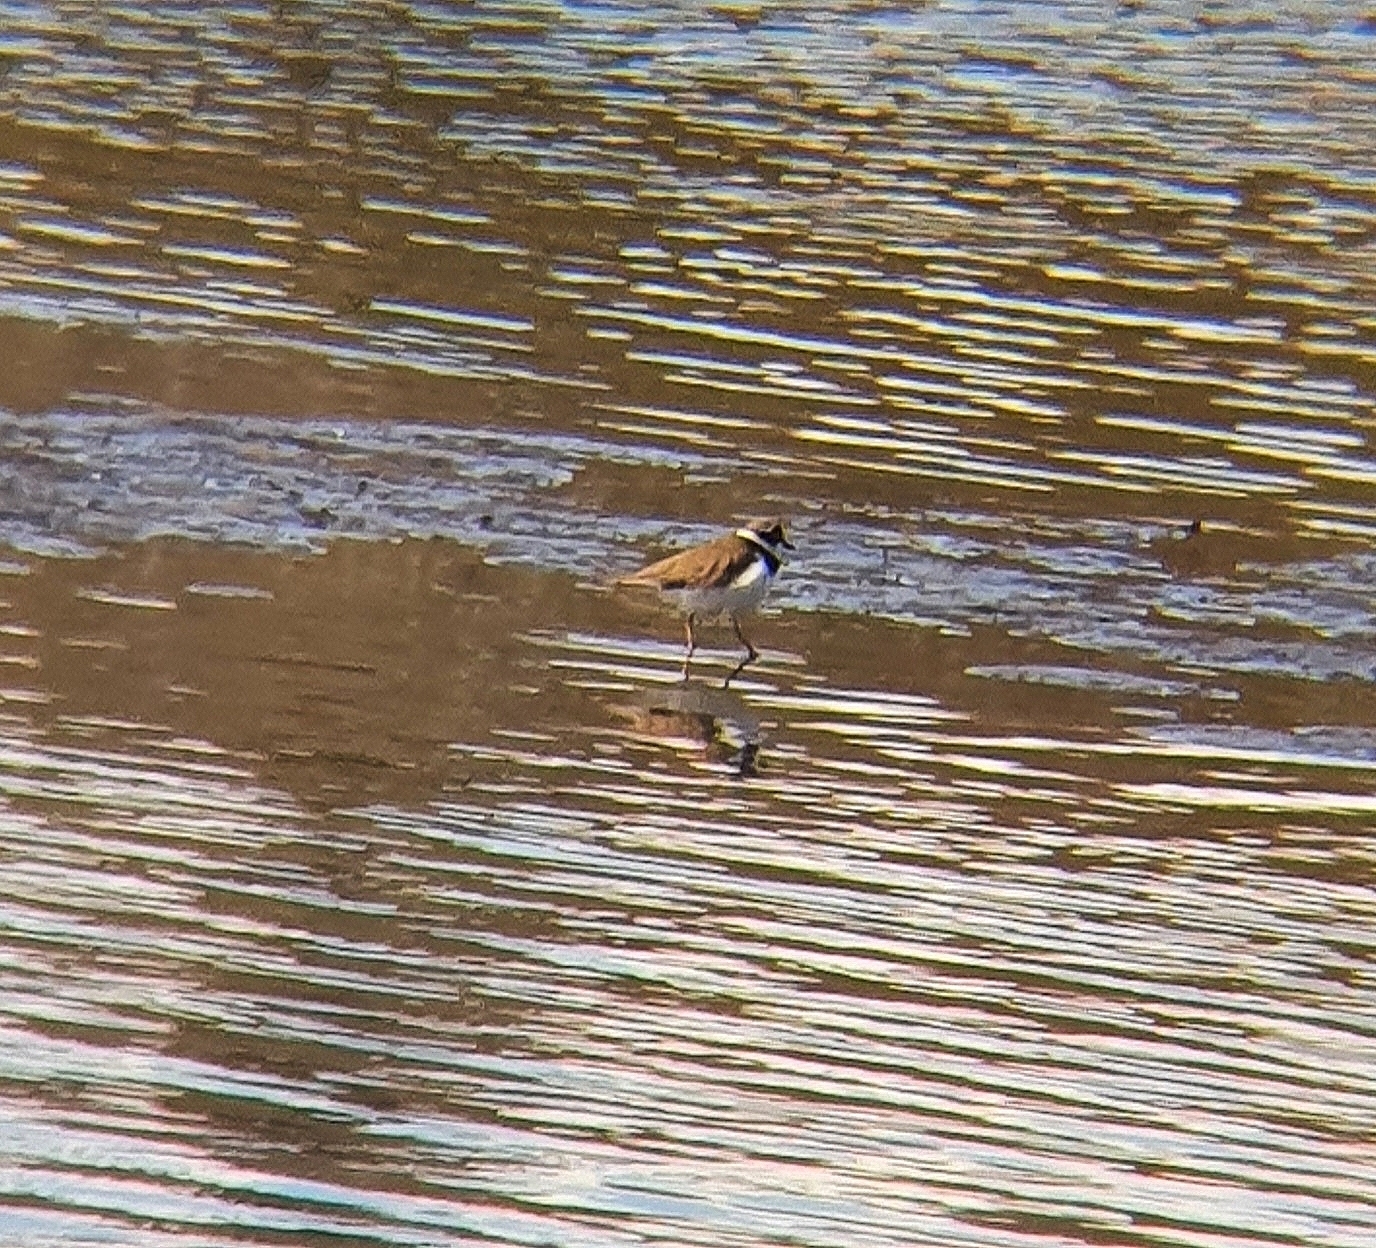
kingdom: Animalia
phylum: Chordata
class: Aves
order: Charadriiformes
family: Charadriidae
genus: Charadrius
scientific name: Charadrius dubius
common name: Little ringed plover
